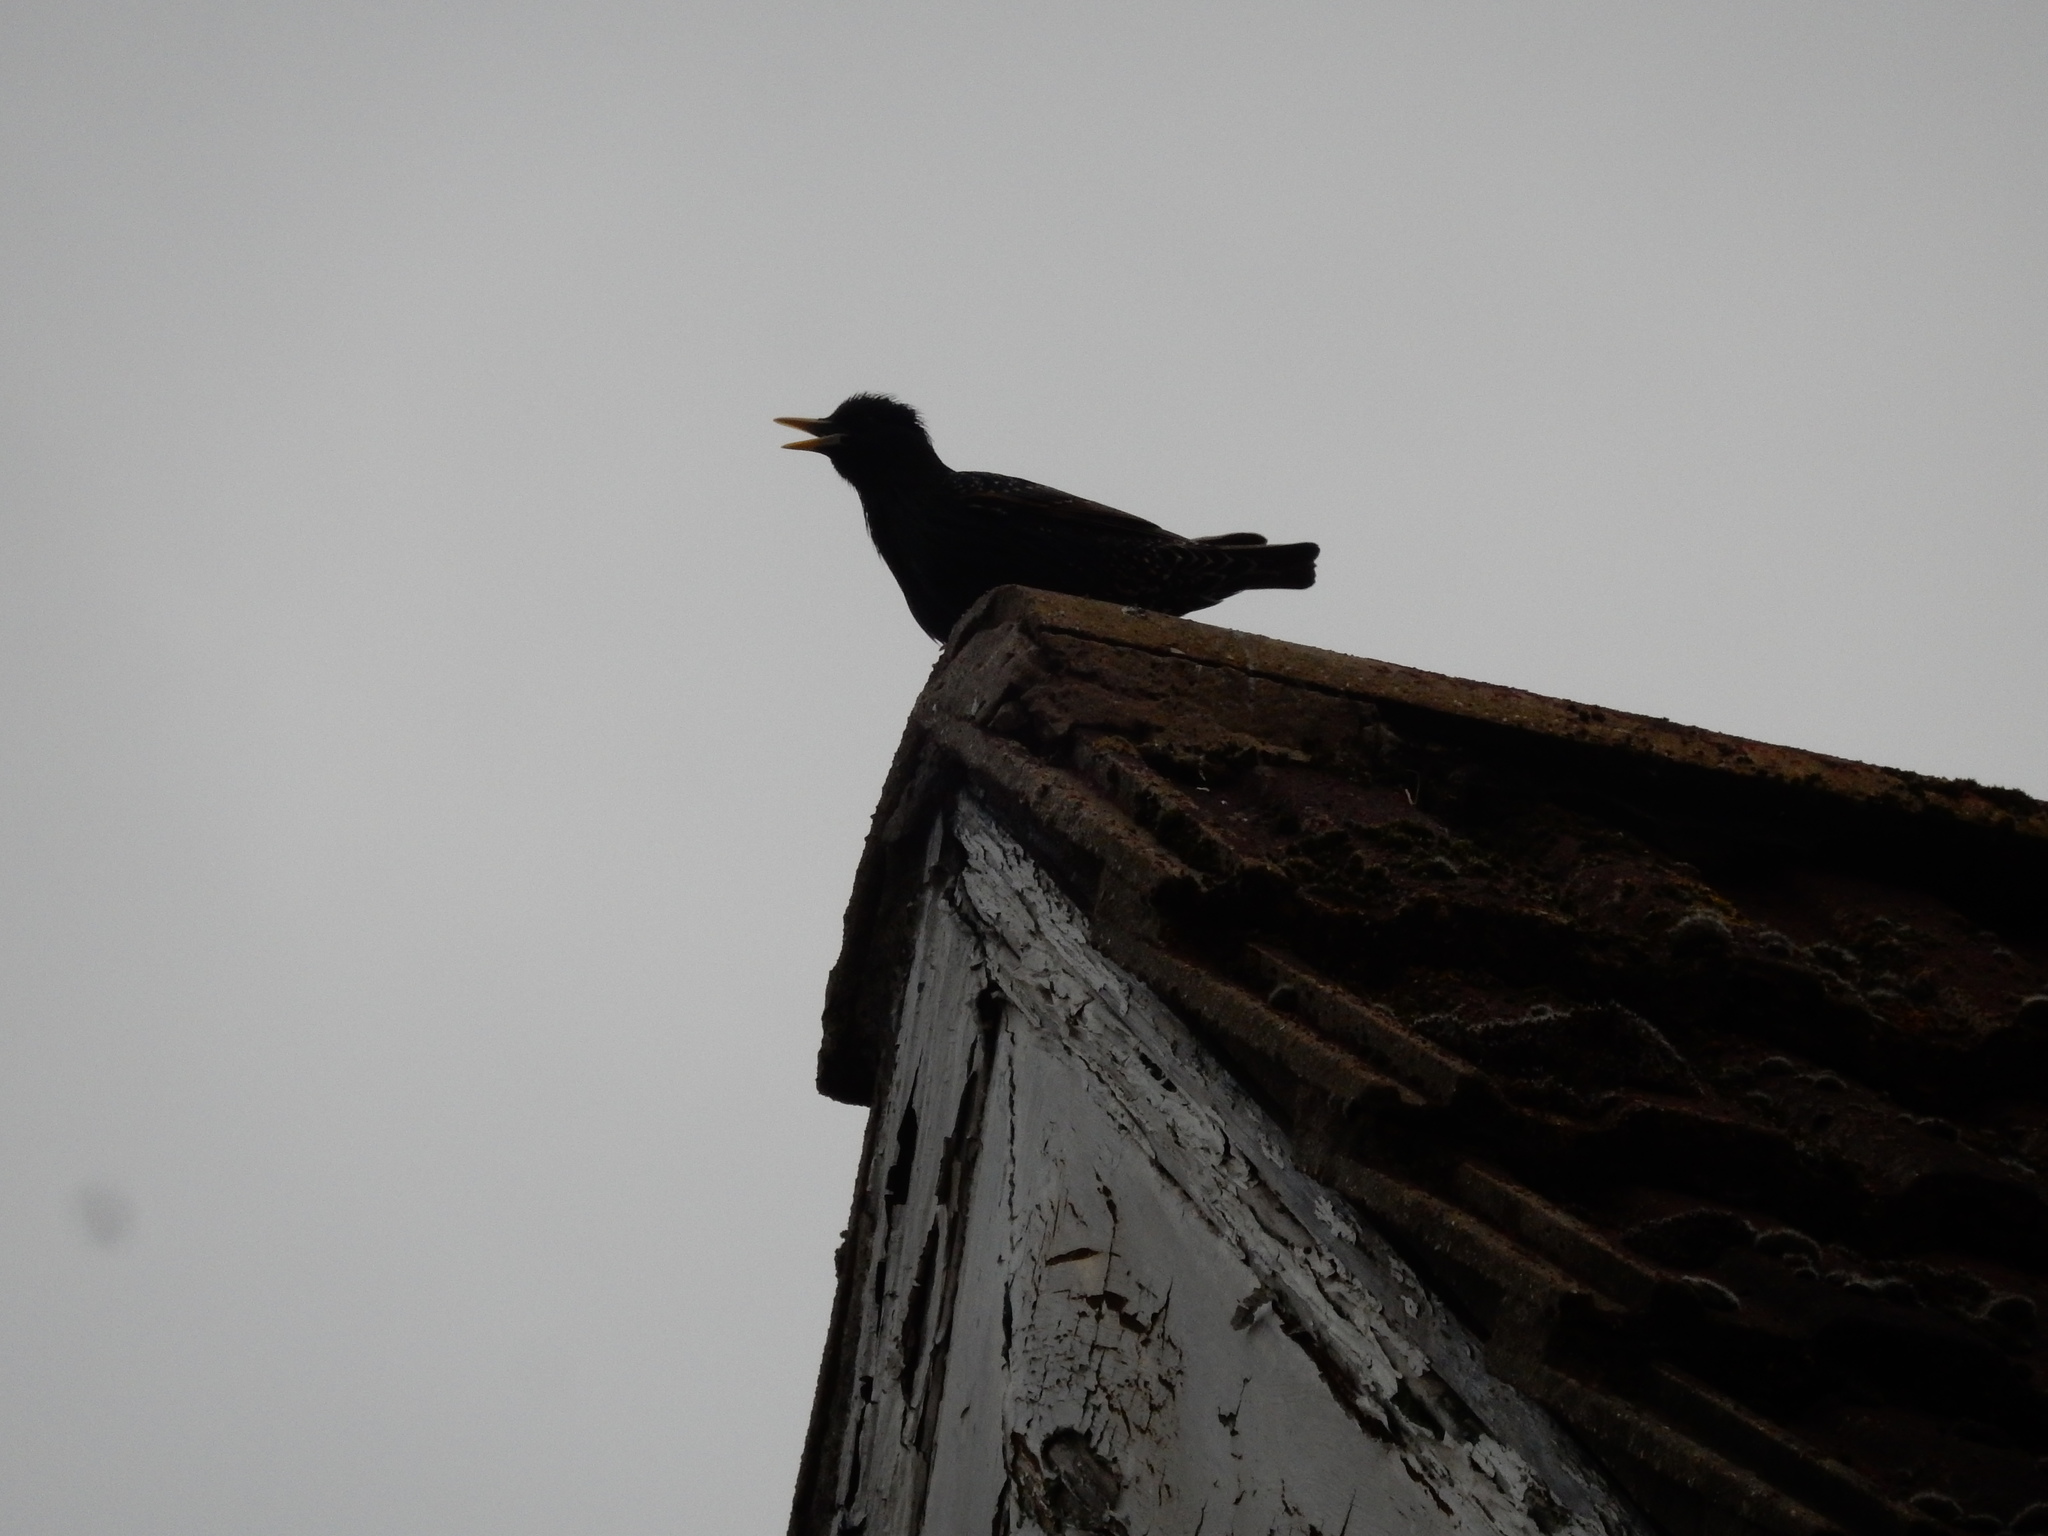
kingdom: Animalia
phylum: Chordata
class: Aves
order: Passeriformes
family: Sturnidae
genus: Sturnus
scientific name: Sturnus vulgaris
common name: Common starling
